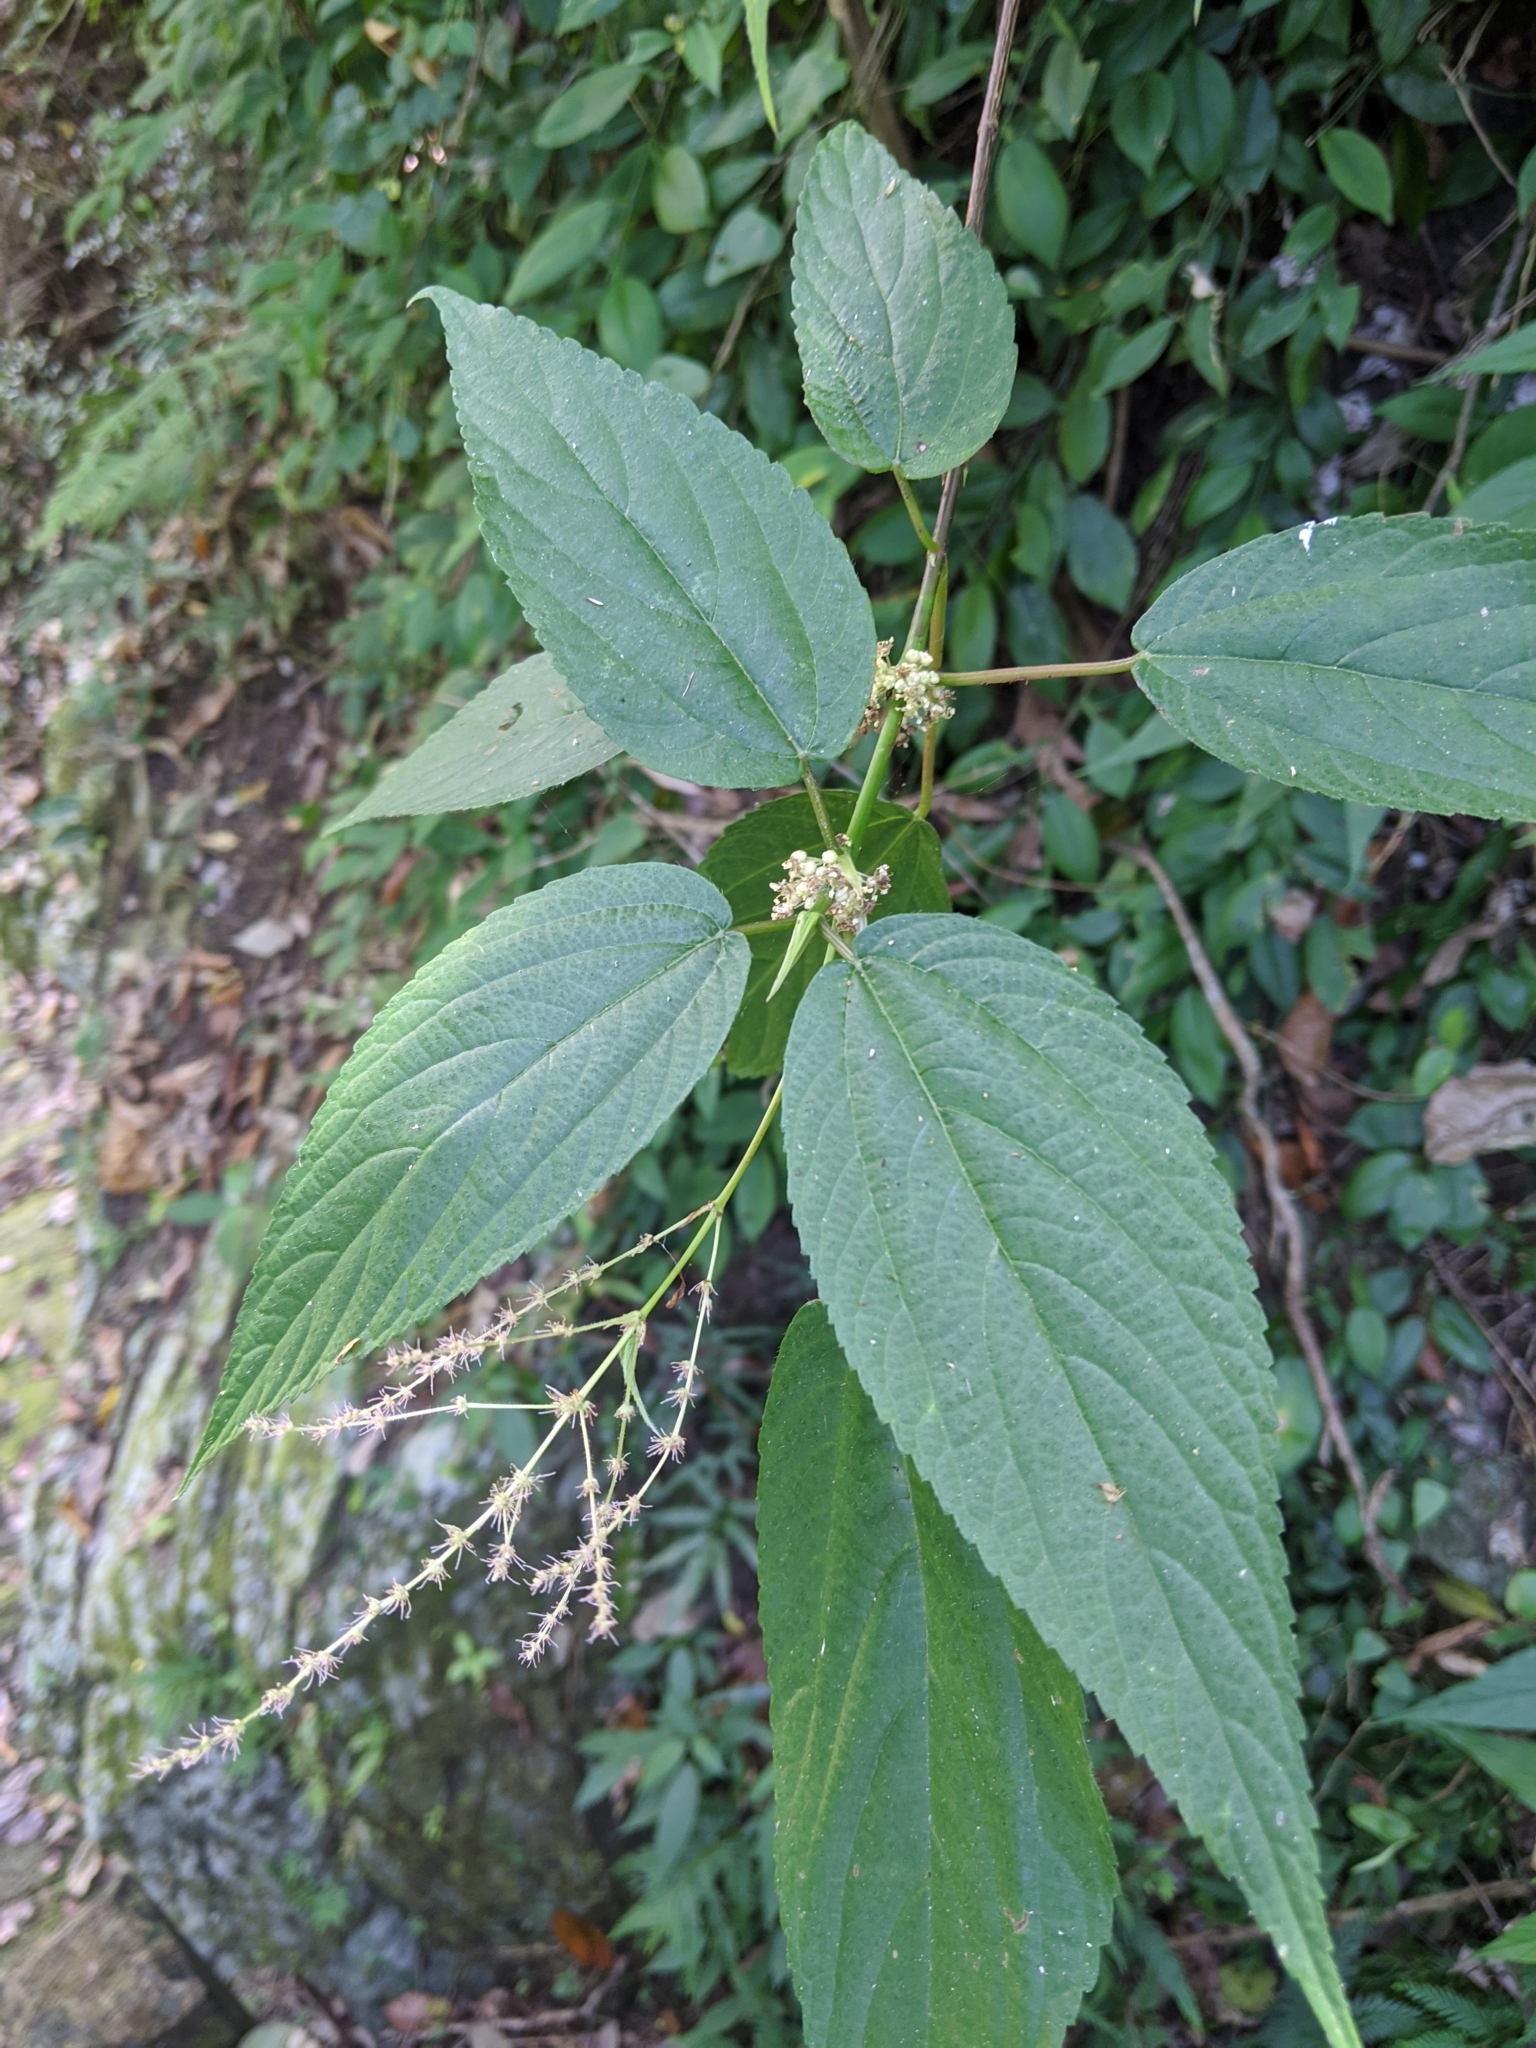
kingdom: Plantae
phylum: Tracheophyta
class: Magnoliopsida
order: Rosales
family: Urticaceae
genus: Boehmeria
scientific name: Boehmeria zollingeriana
